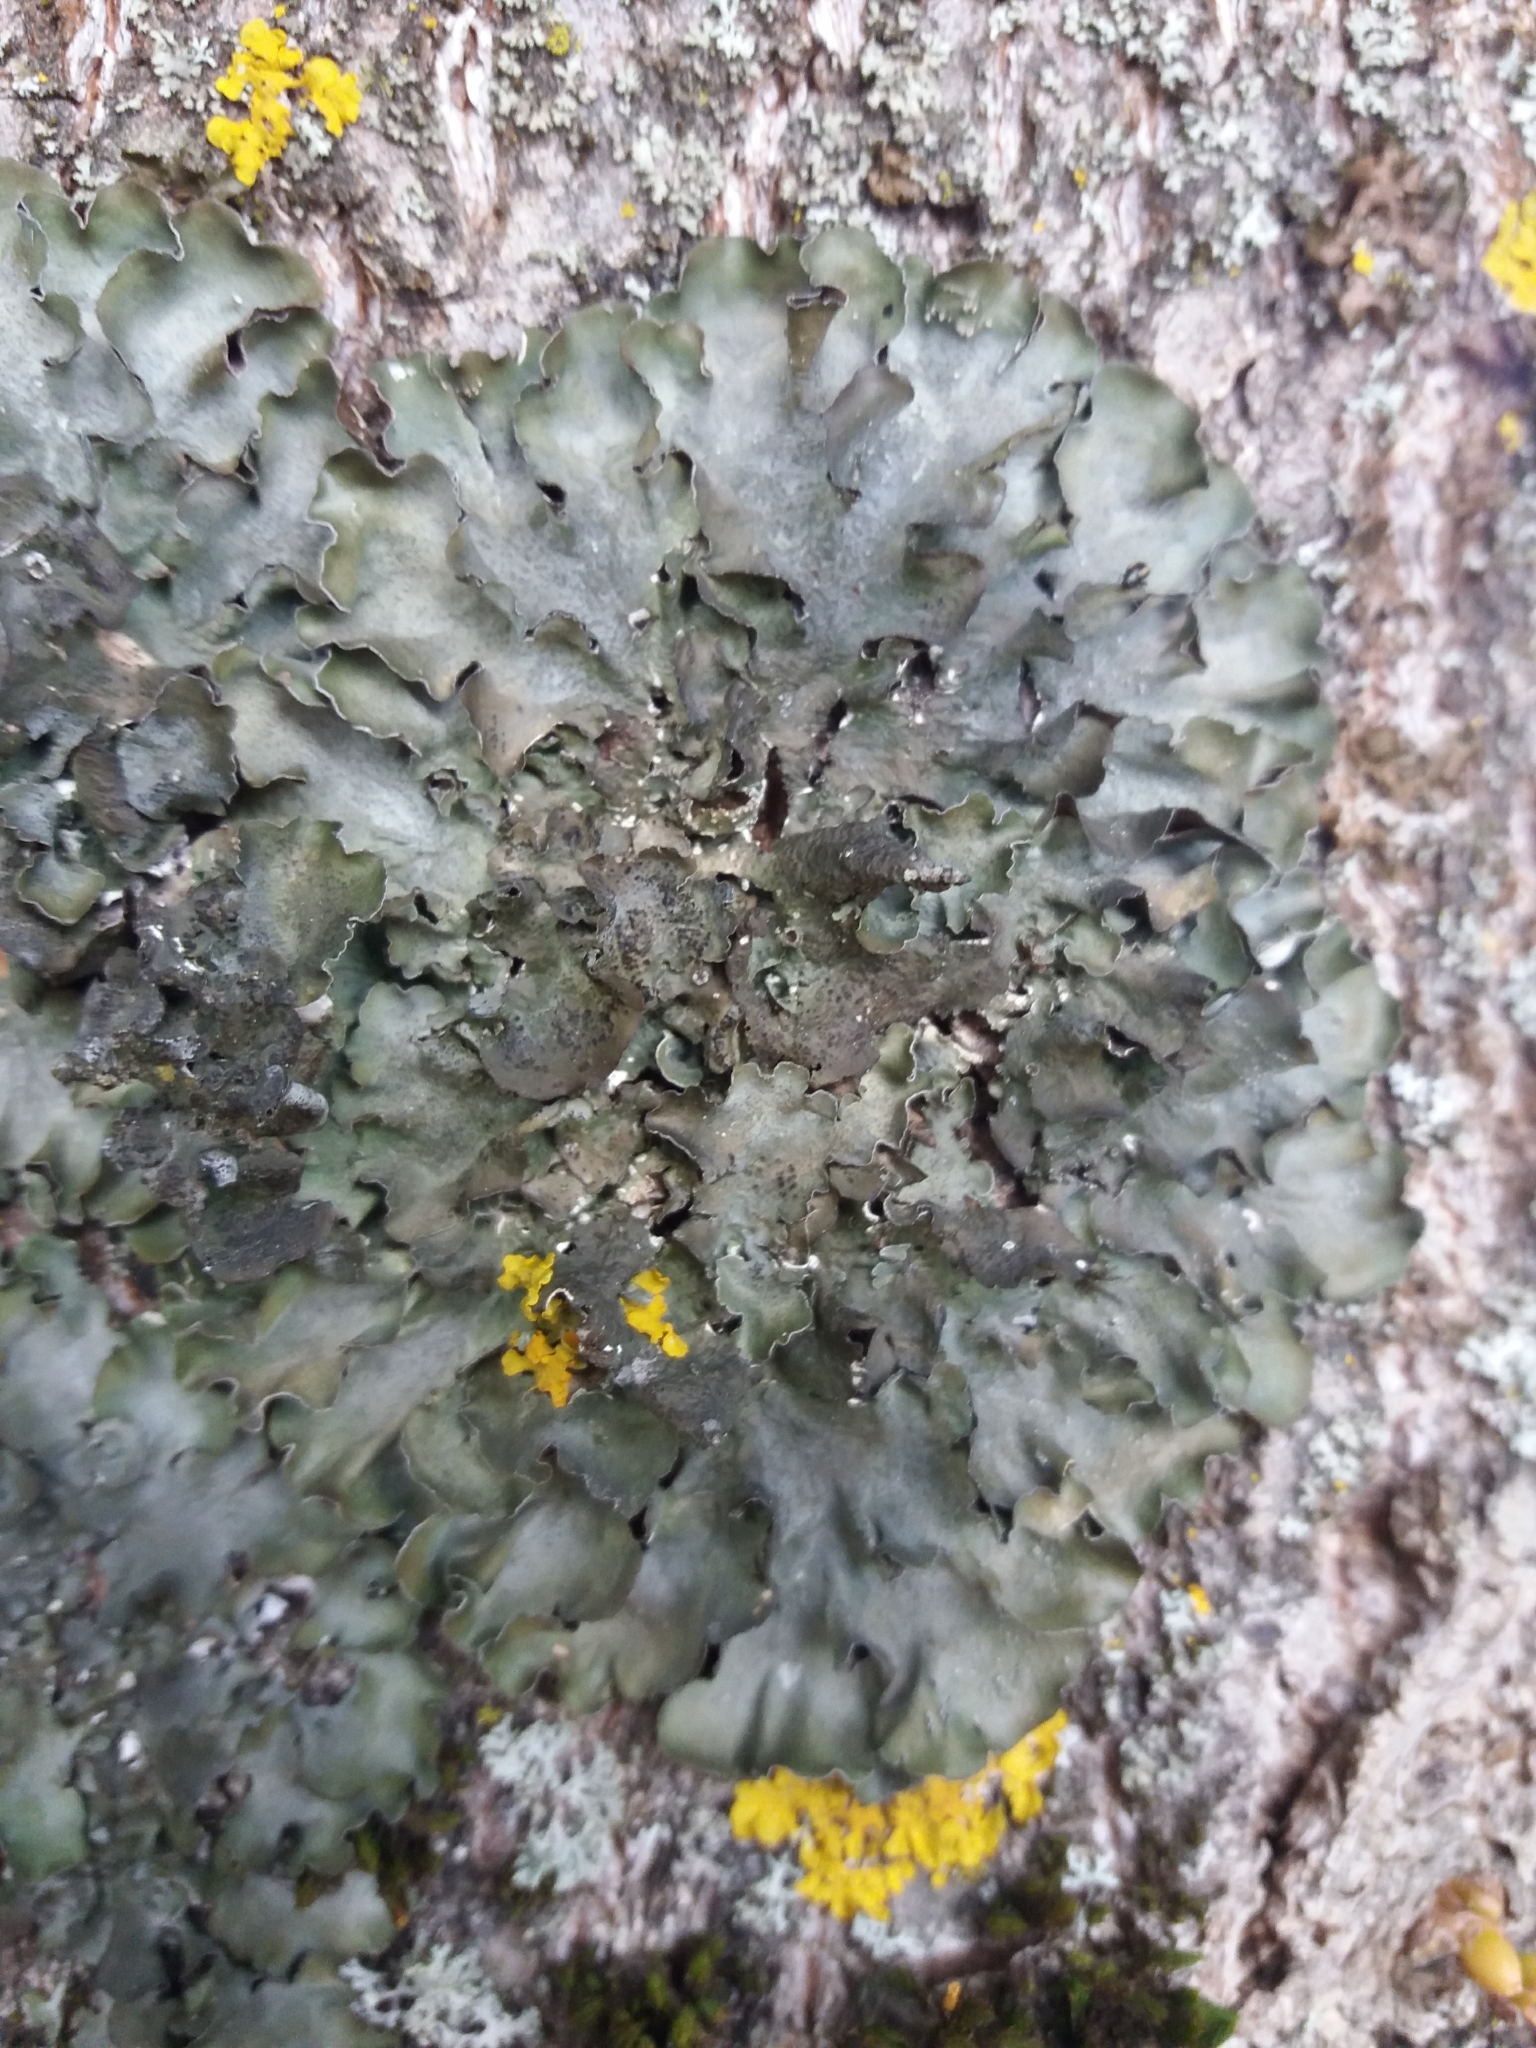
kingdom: Fungi
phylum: Ascomycota
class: Lecanoromycetes
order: Lecanorales
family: Parmeliaceae
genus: Pleurosticta
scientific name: Pleurosticta acetabulum
